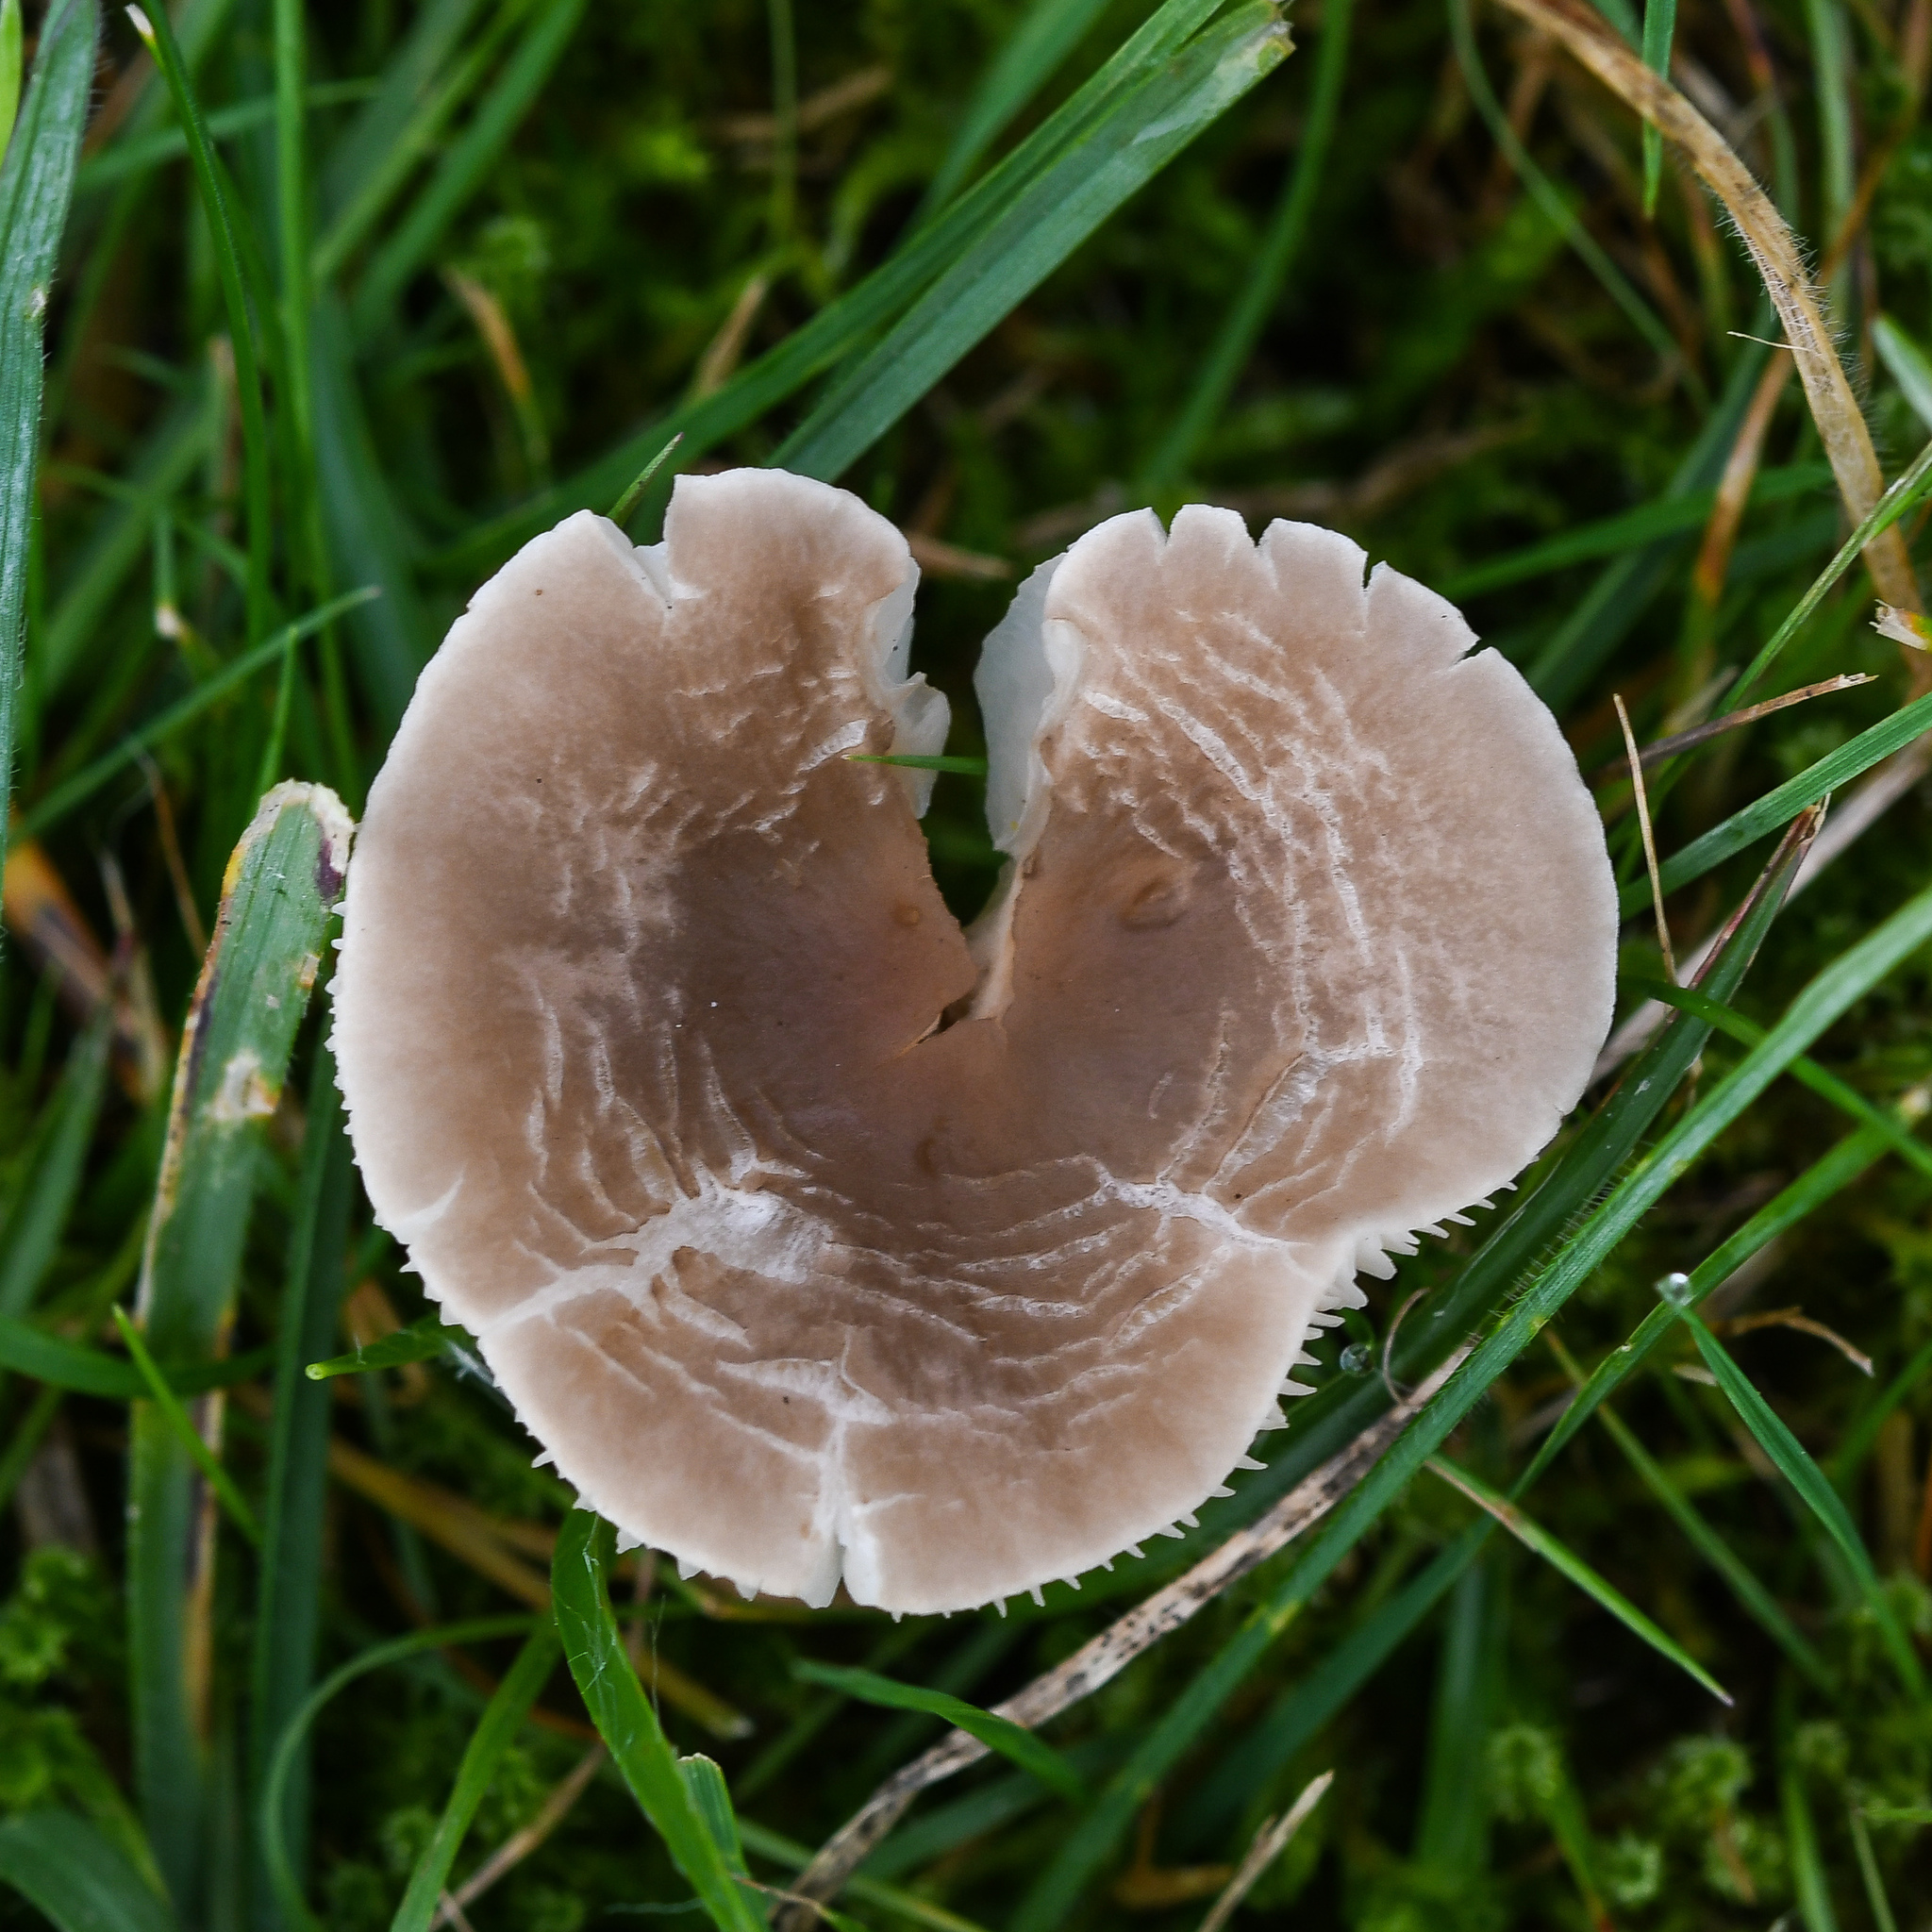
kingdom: Fungi
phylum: Basidiomycota
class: Agaricomycetes
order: Agaricales
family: Tricholomataceae
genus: Dermoloma
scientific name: Dermoloma cuneifolium
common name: Crazed cap
